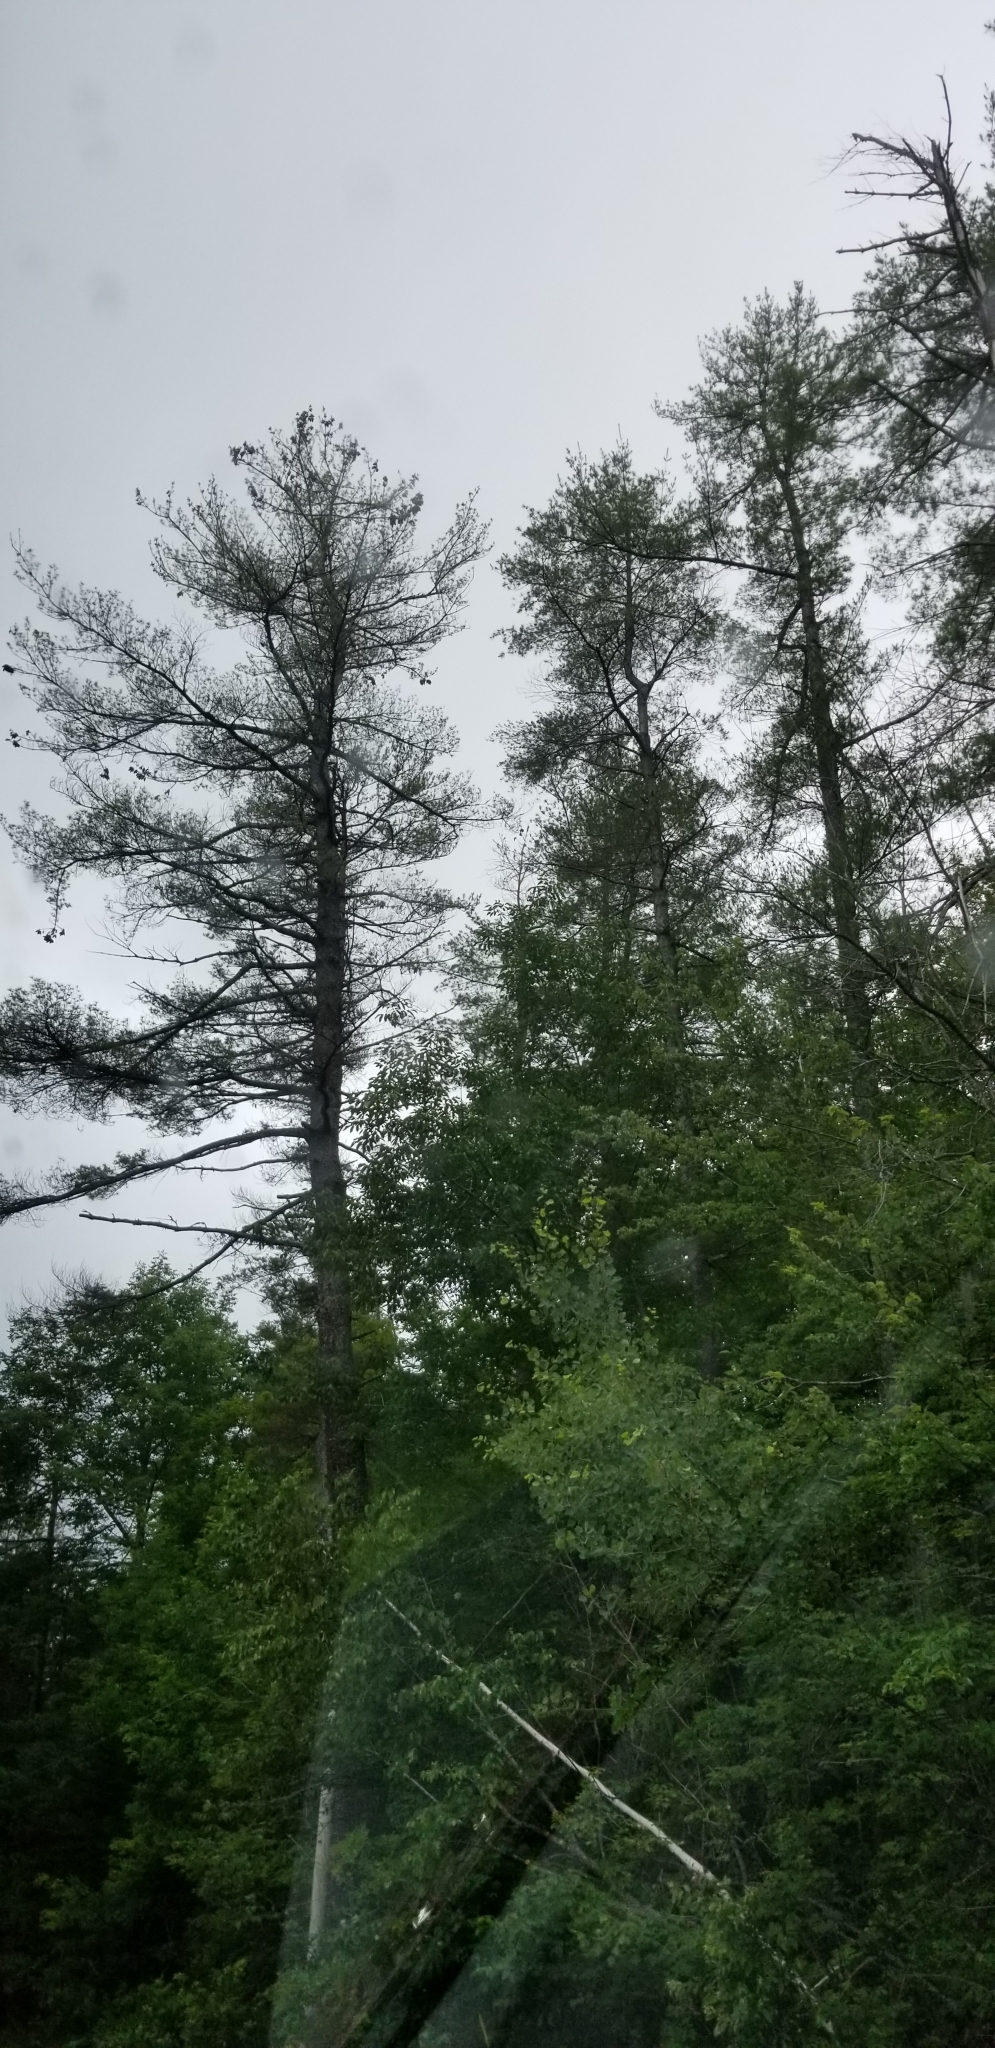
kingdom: Plantae
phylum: Tracheophyta
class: Pinopsida
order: Pinales
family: Pinaceae
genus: Pinus
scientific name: Pinus strobus
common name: Weymouth pine
